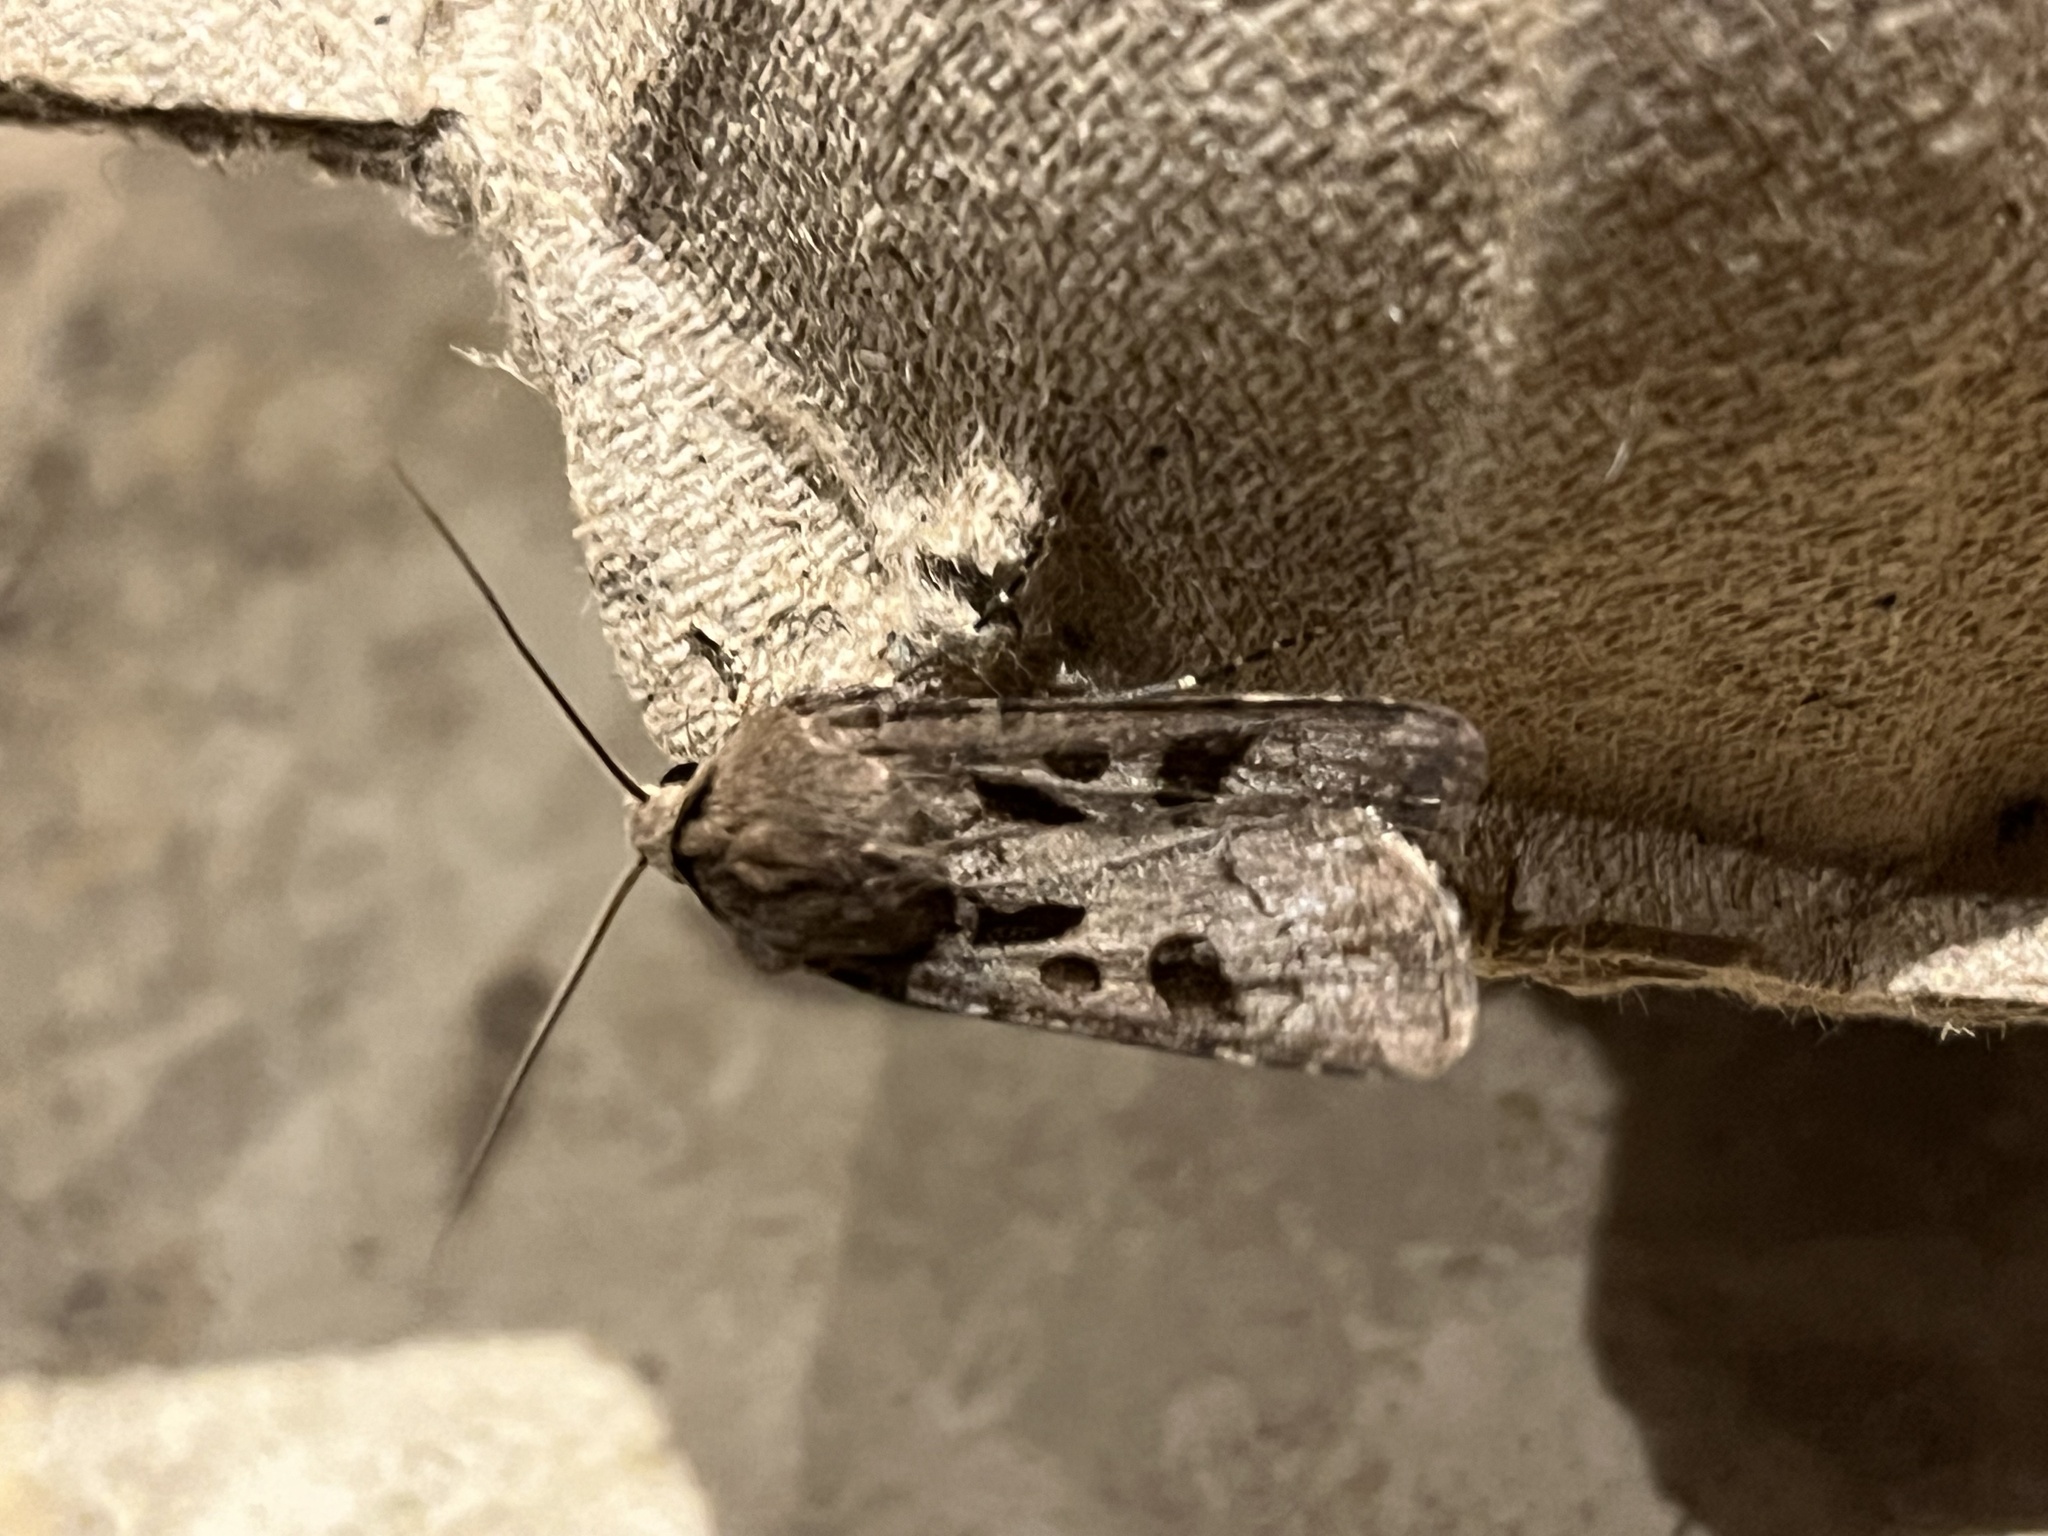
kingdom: Animalia
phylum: Arthropoda
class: Insecta
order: Lepidoptera
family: Noctuidae
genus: Agrotis
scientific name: Agrotis exclamationis
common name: Heart and dart
